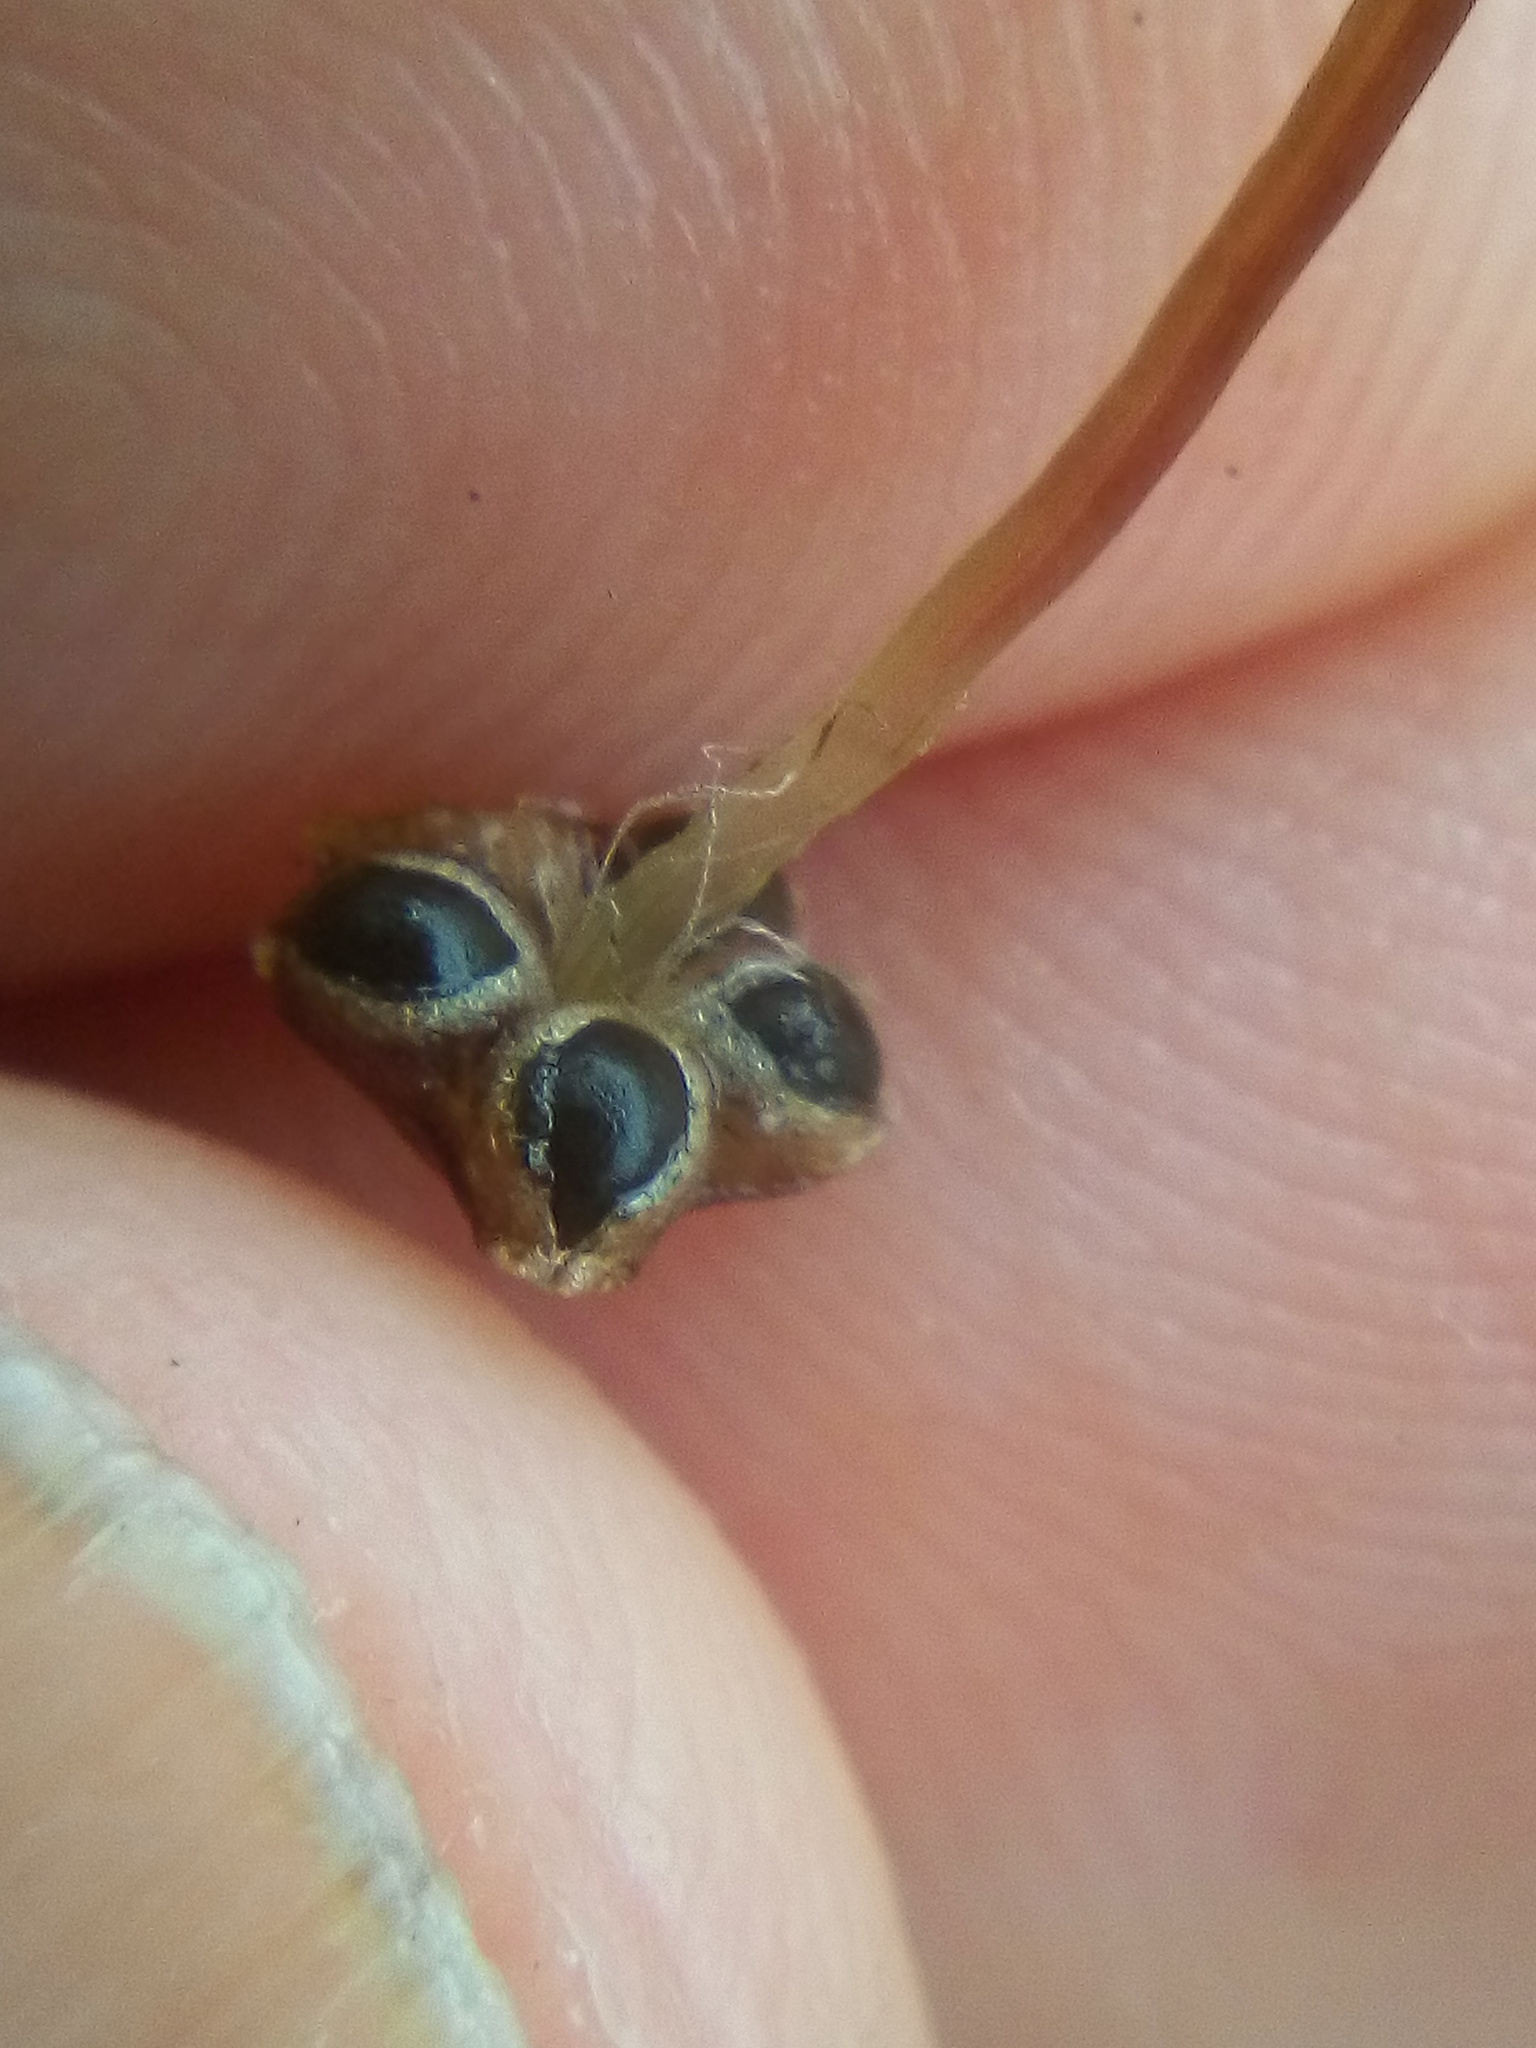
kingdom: Plantae
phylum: Marchantiophyta
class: Marchantiopsida
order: Marchantiales
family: Aytoniaceae
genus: Reboulia
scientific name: Reboulia hemisphaerica
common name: Purple-margined liverwort
